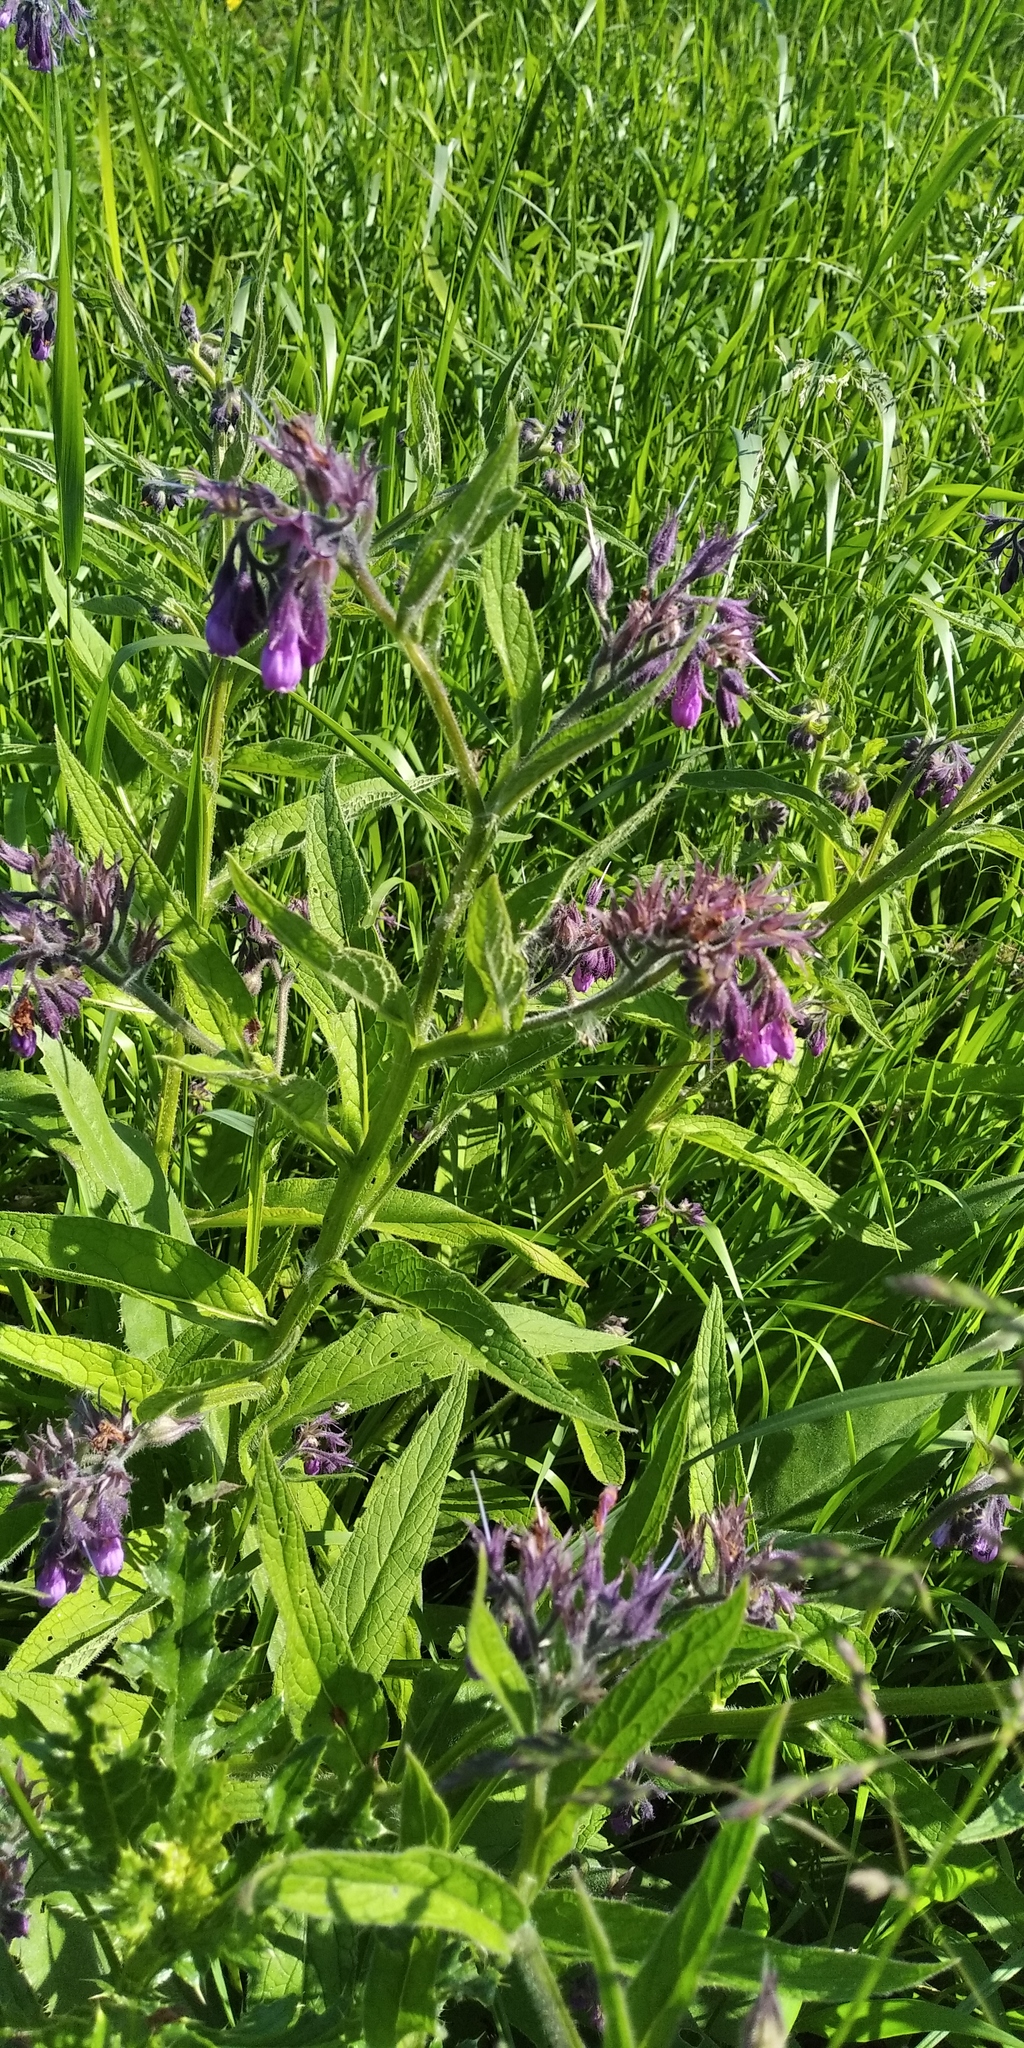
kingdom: Plantae
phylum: Tracheophyta
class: Magnoliopsida
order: Boraginales
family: Boraginaceae
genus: Symphytum
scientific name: Symphytum officinale
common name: Common comfrey
